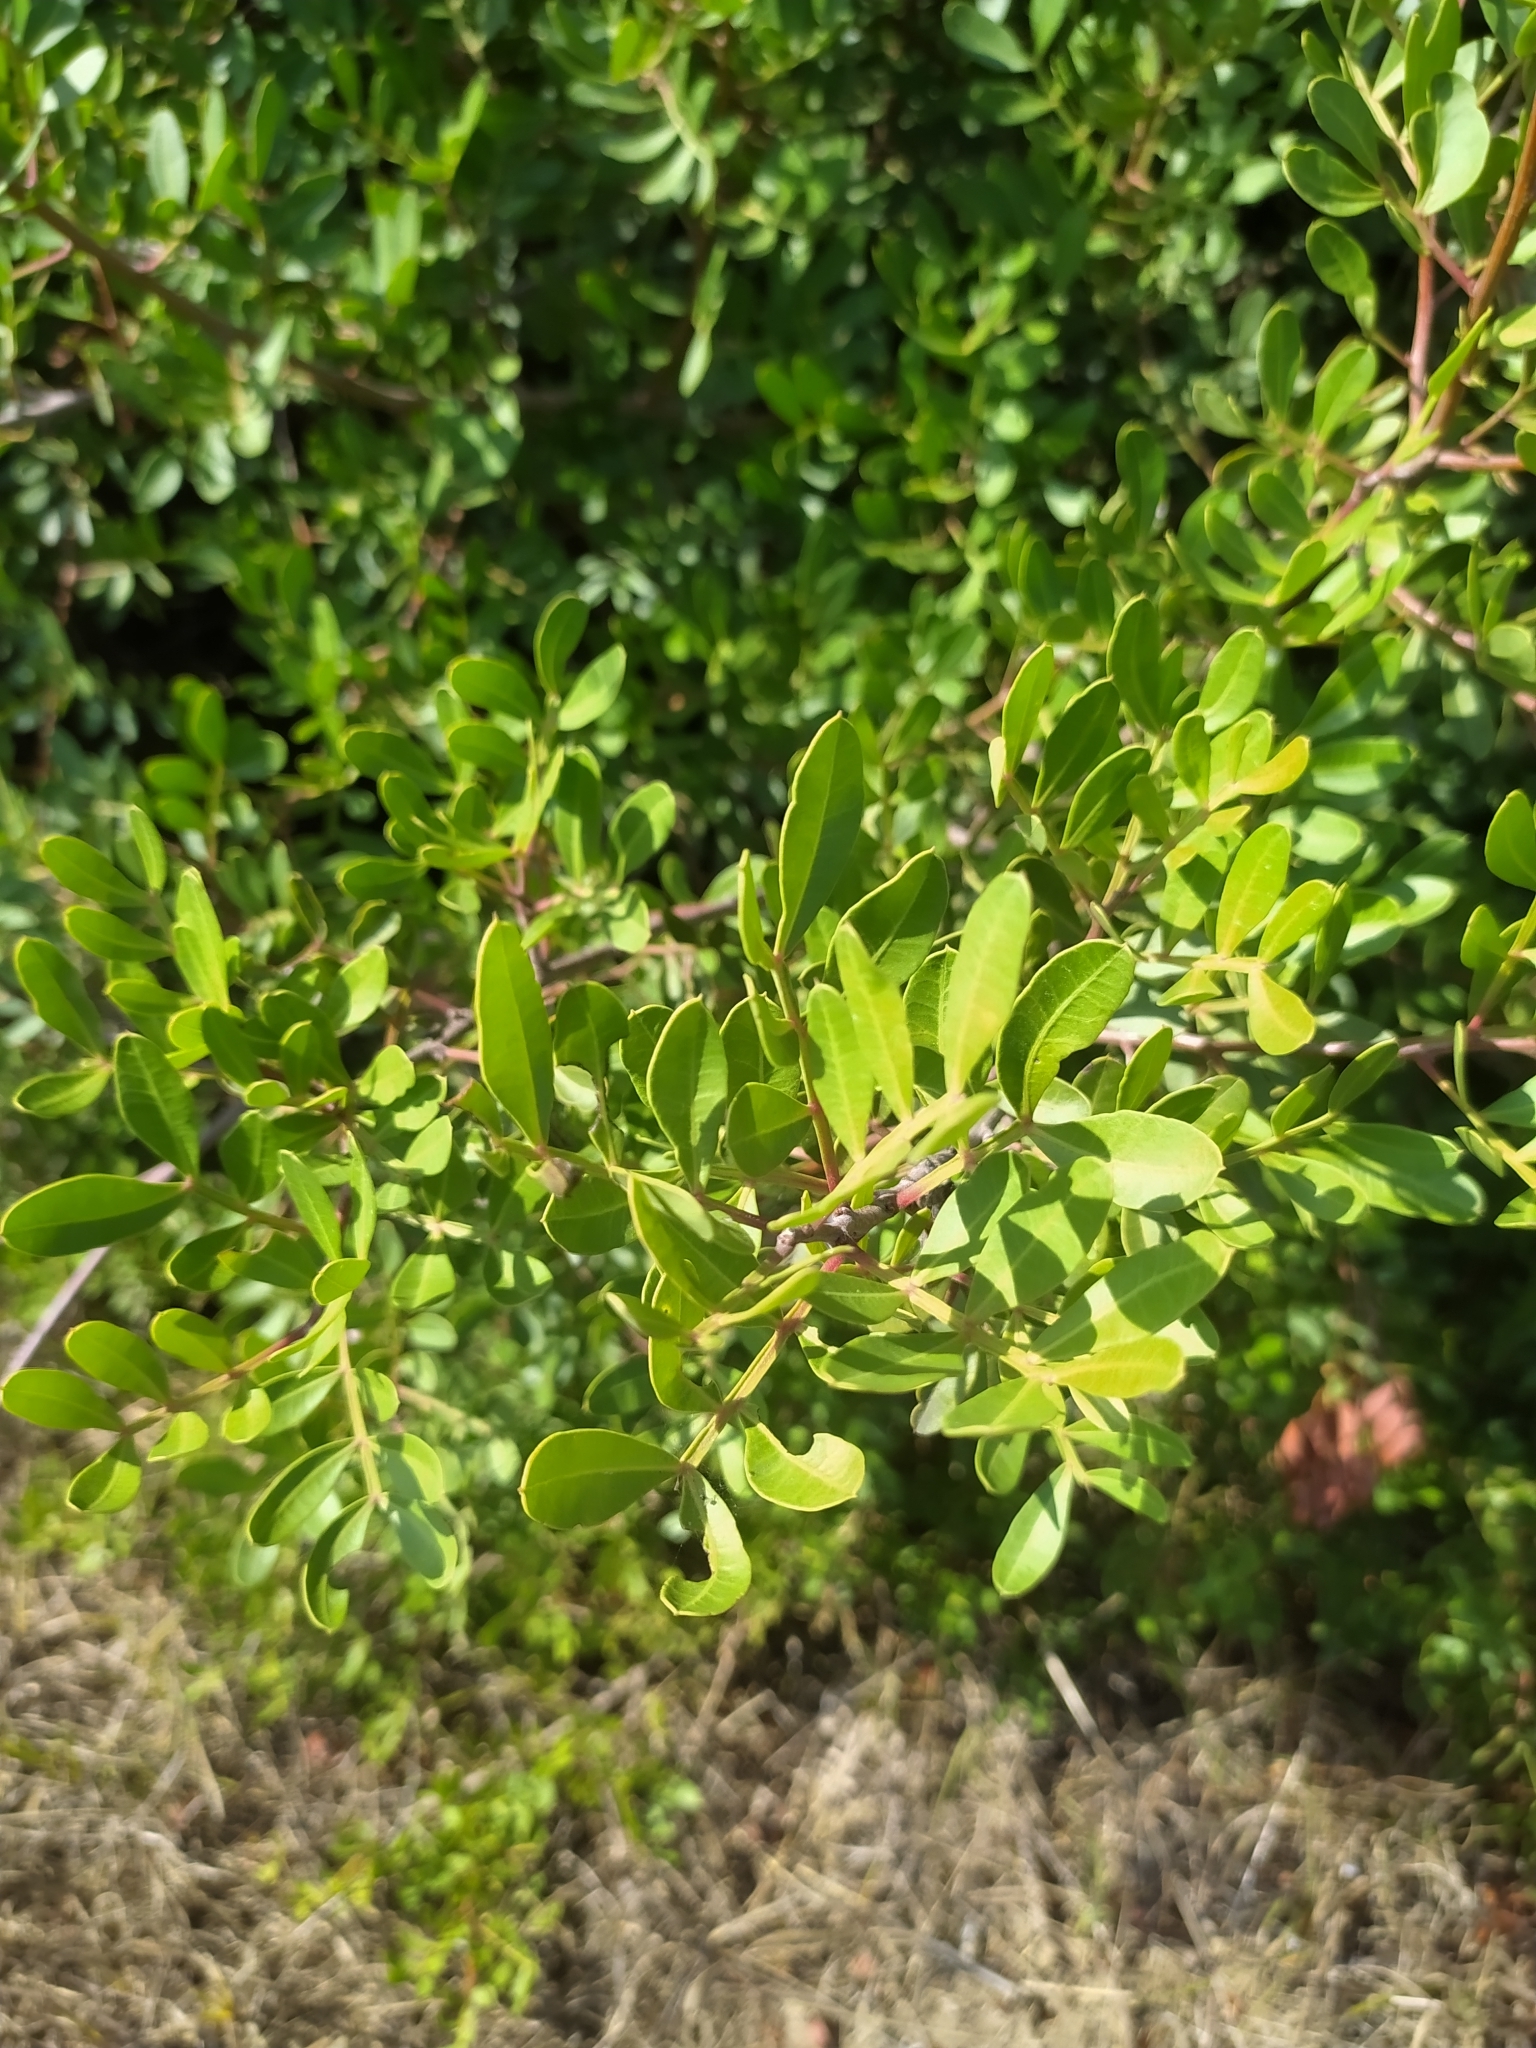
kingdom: Plantae
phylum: Tracheophyta
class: Magnoliopsida
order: Sapindales
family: Anacardiaceae
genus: Pistacia
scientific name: Pistacia lentiscus
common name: Lentisk
